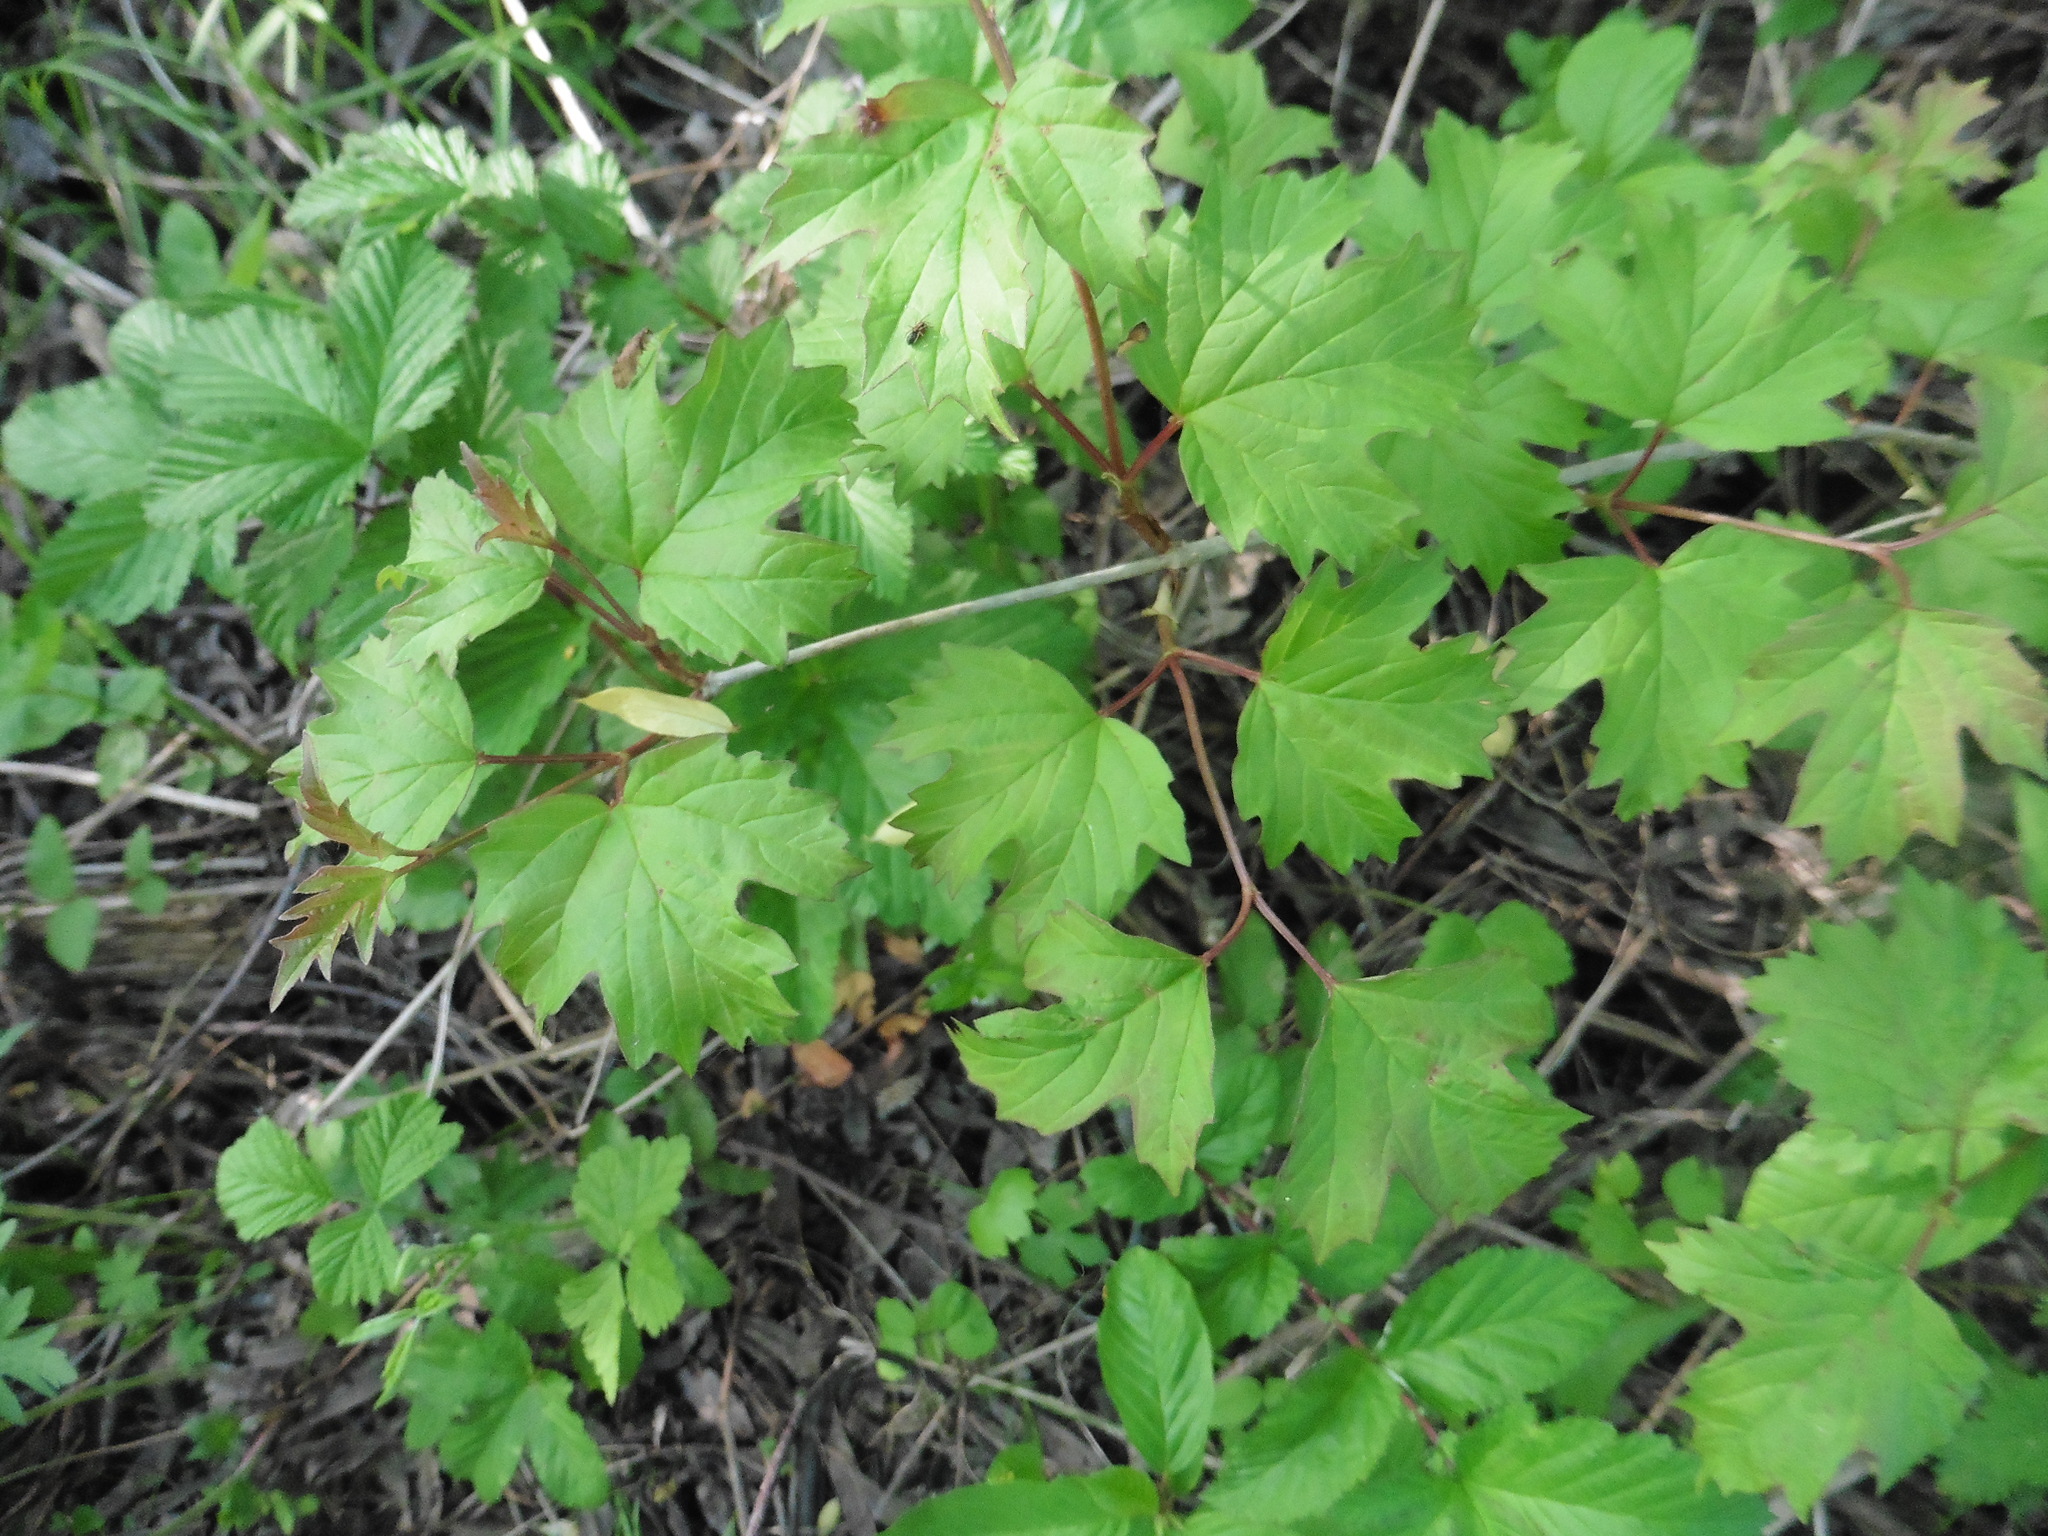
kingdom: Plantae
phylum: Tracheophyta
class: Magnoliopsida
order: Dipsacales
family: Viburnaceae
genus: Viburnum
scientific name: Viburnum opulus
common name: Guelder-rose
